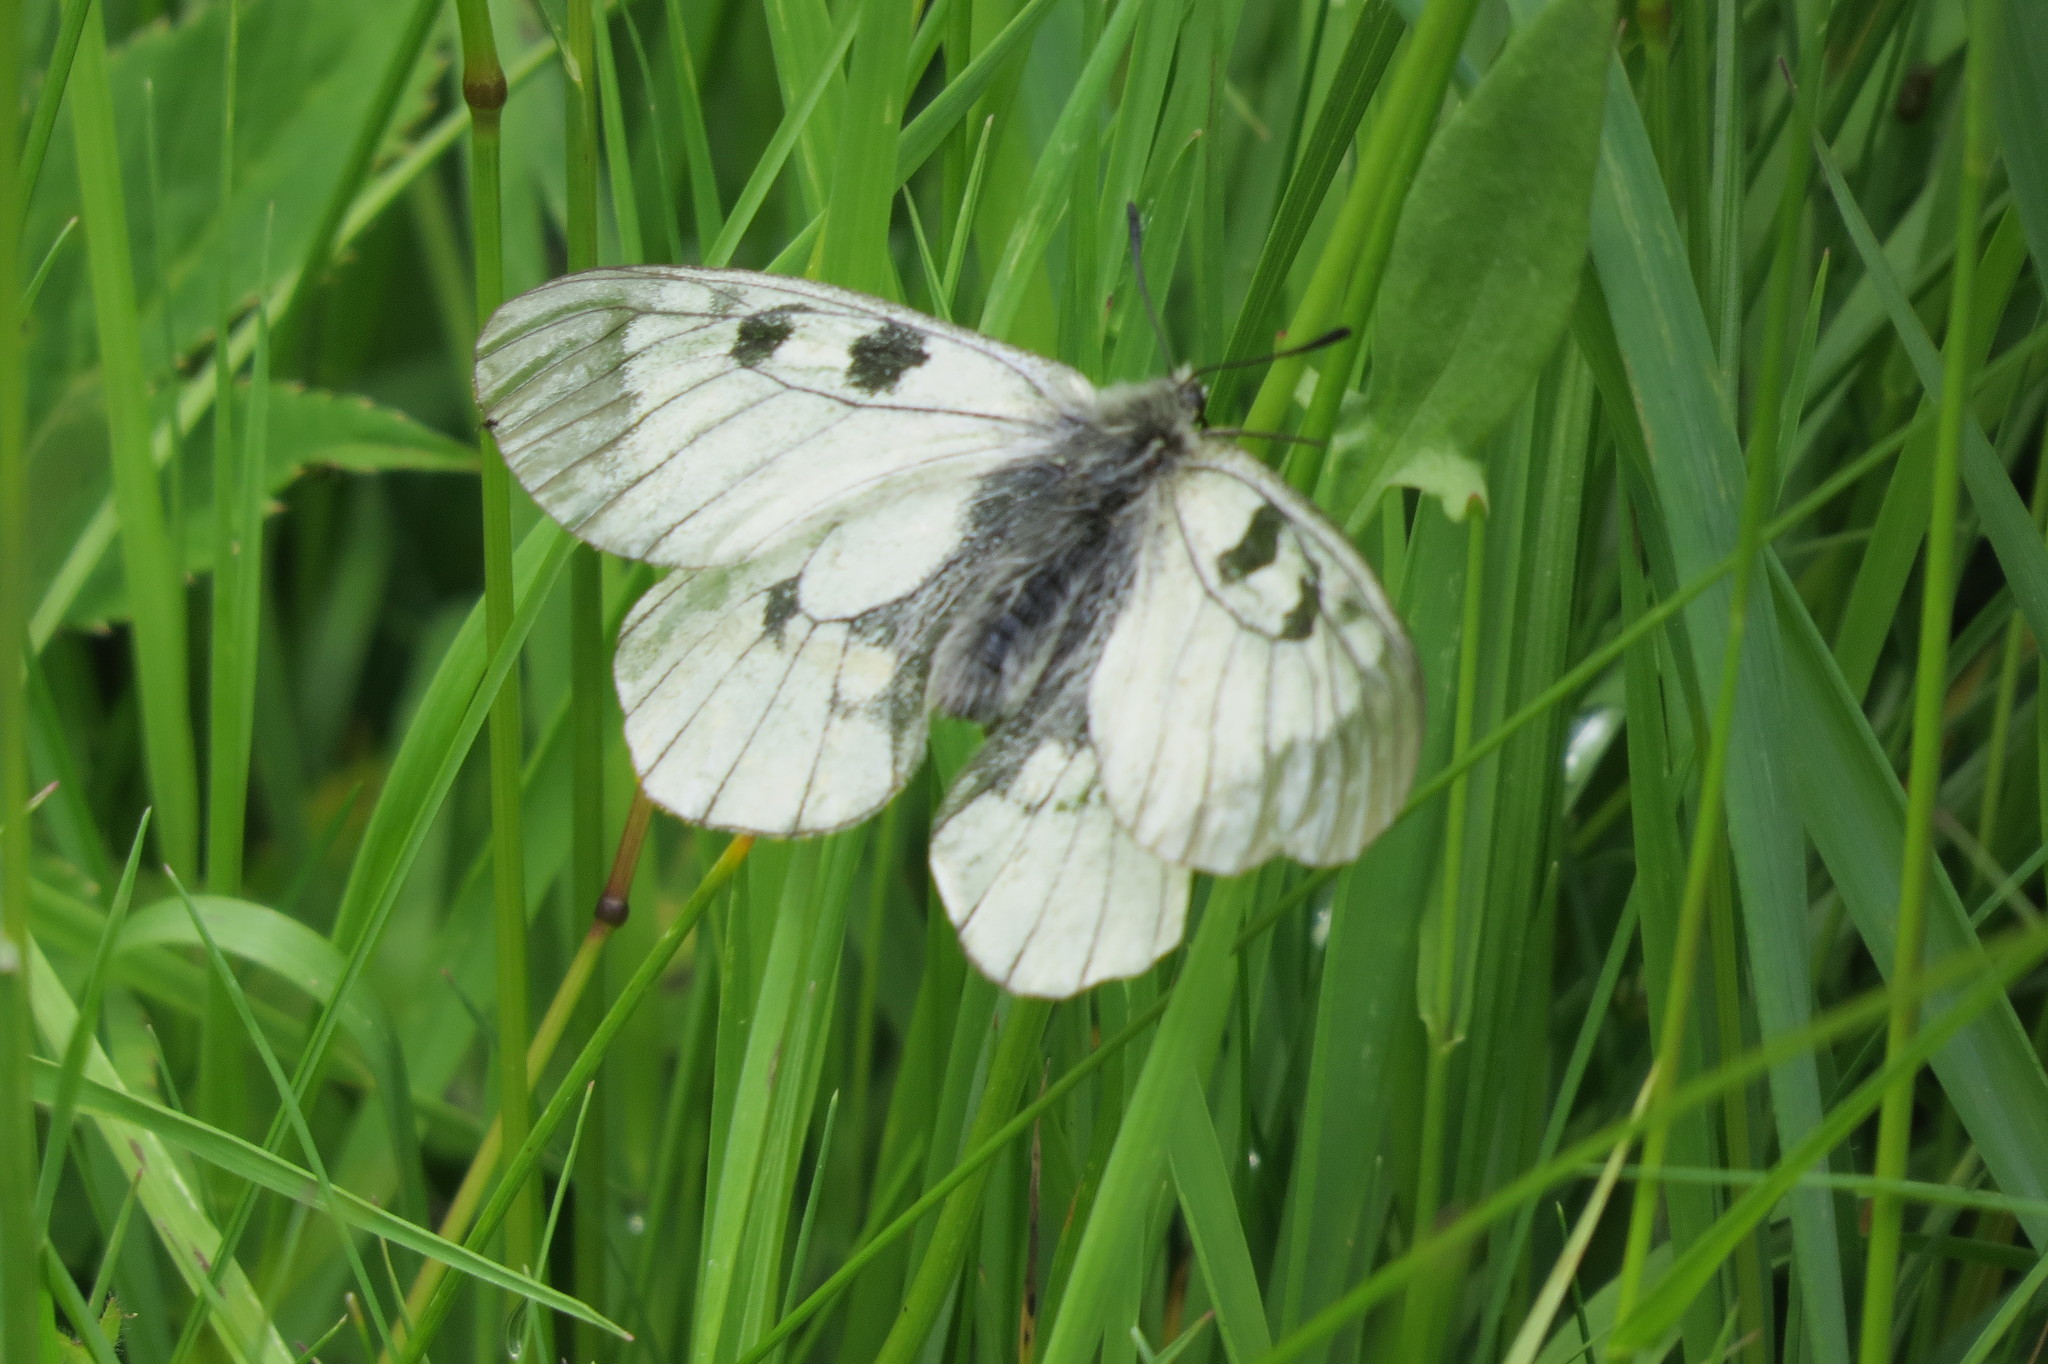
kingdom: Animalia
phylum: Arthropoda
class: Insecta
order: Lepidoptera
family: Papilionidae
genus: Parnassius
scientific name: Parnassius mnemosyne
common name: Clouded apollo
